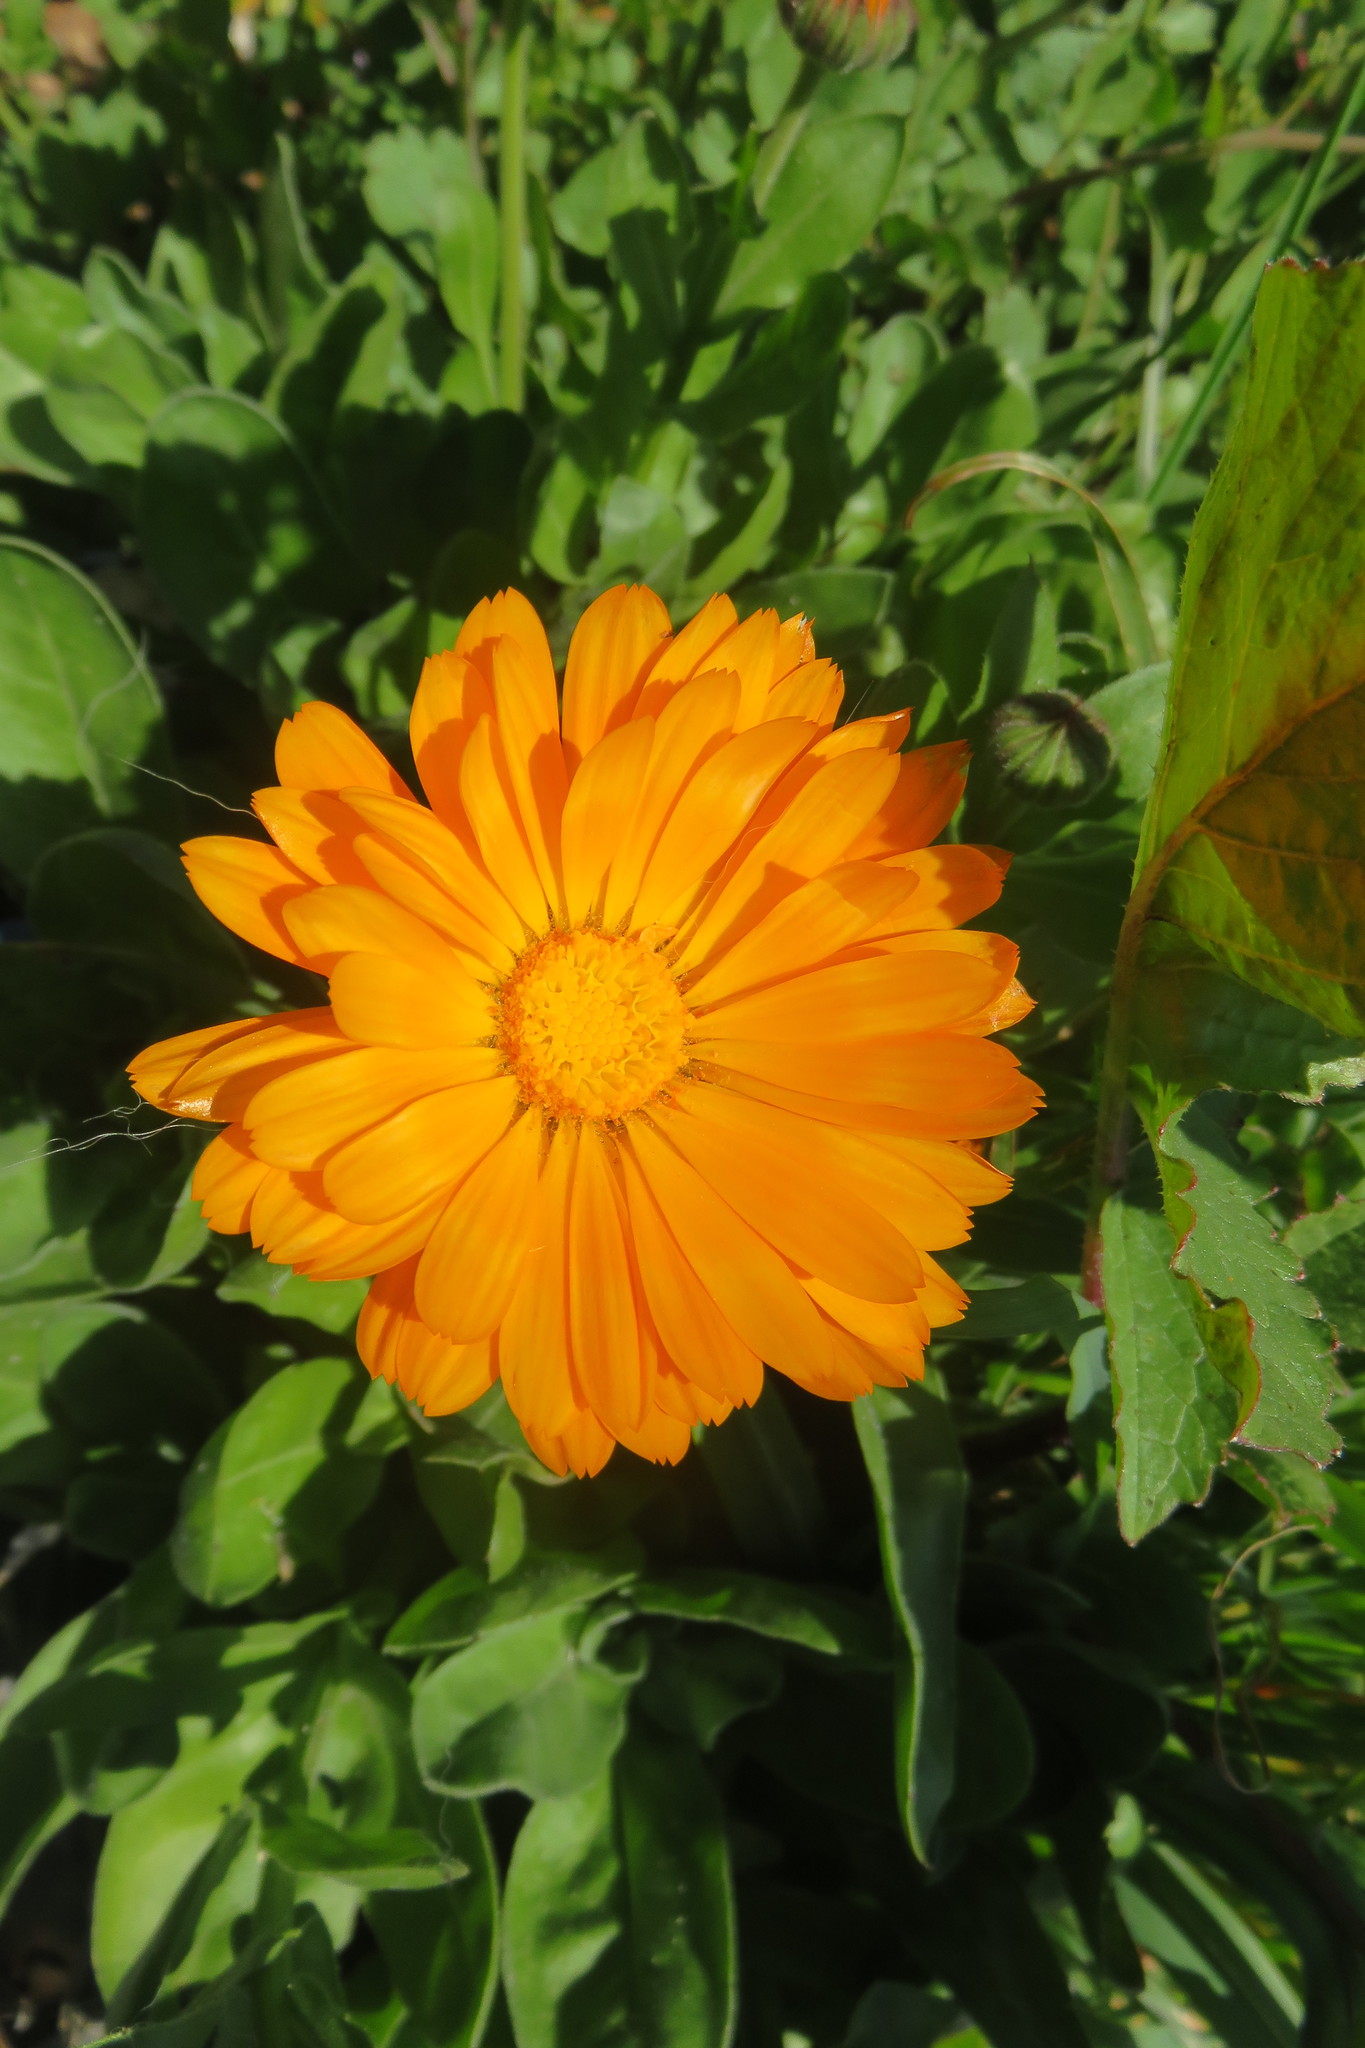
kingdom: Plantae
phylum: Tracheophyta
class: Magnoliopsida
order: Asterales
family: Asteraceae
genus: Calendula
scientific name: Calendula officinalis
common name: Pot marigold
